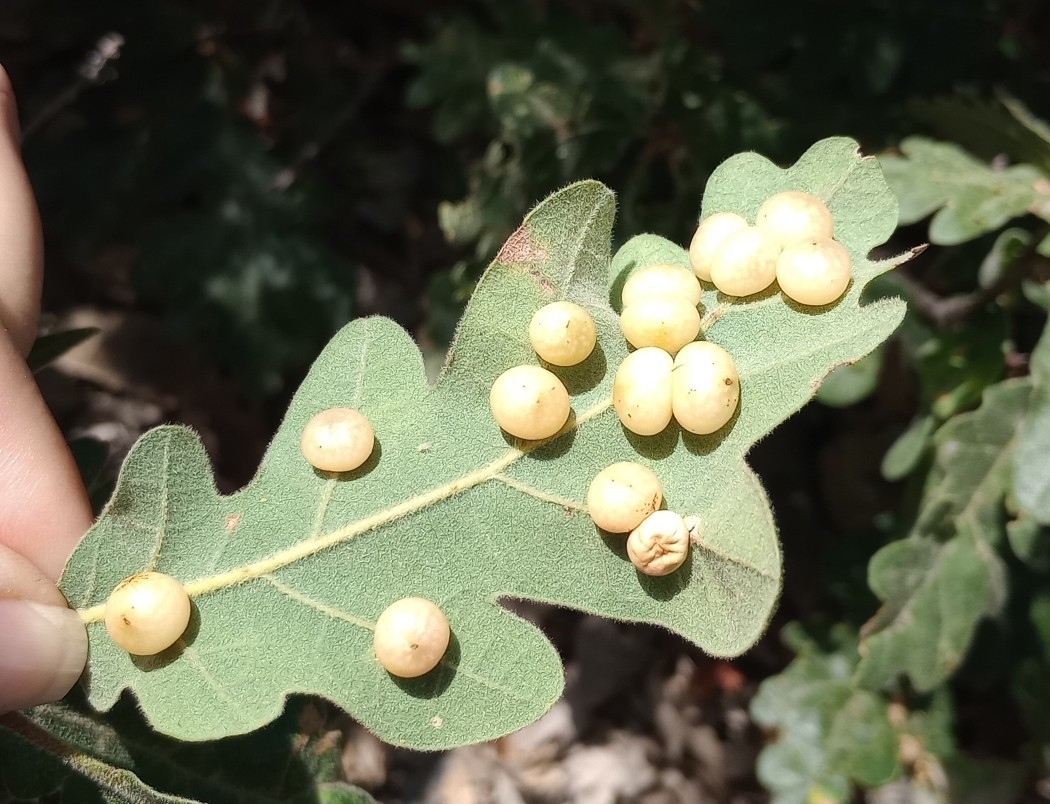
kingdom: Animalia
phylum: Arthropoda
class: Insecta
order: Hymenoptera
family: Cynipidae
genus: Cynips
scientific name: Cynips quercus
